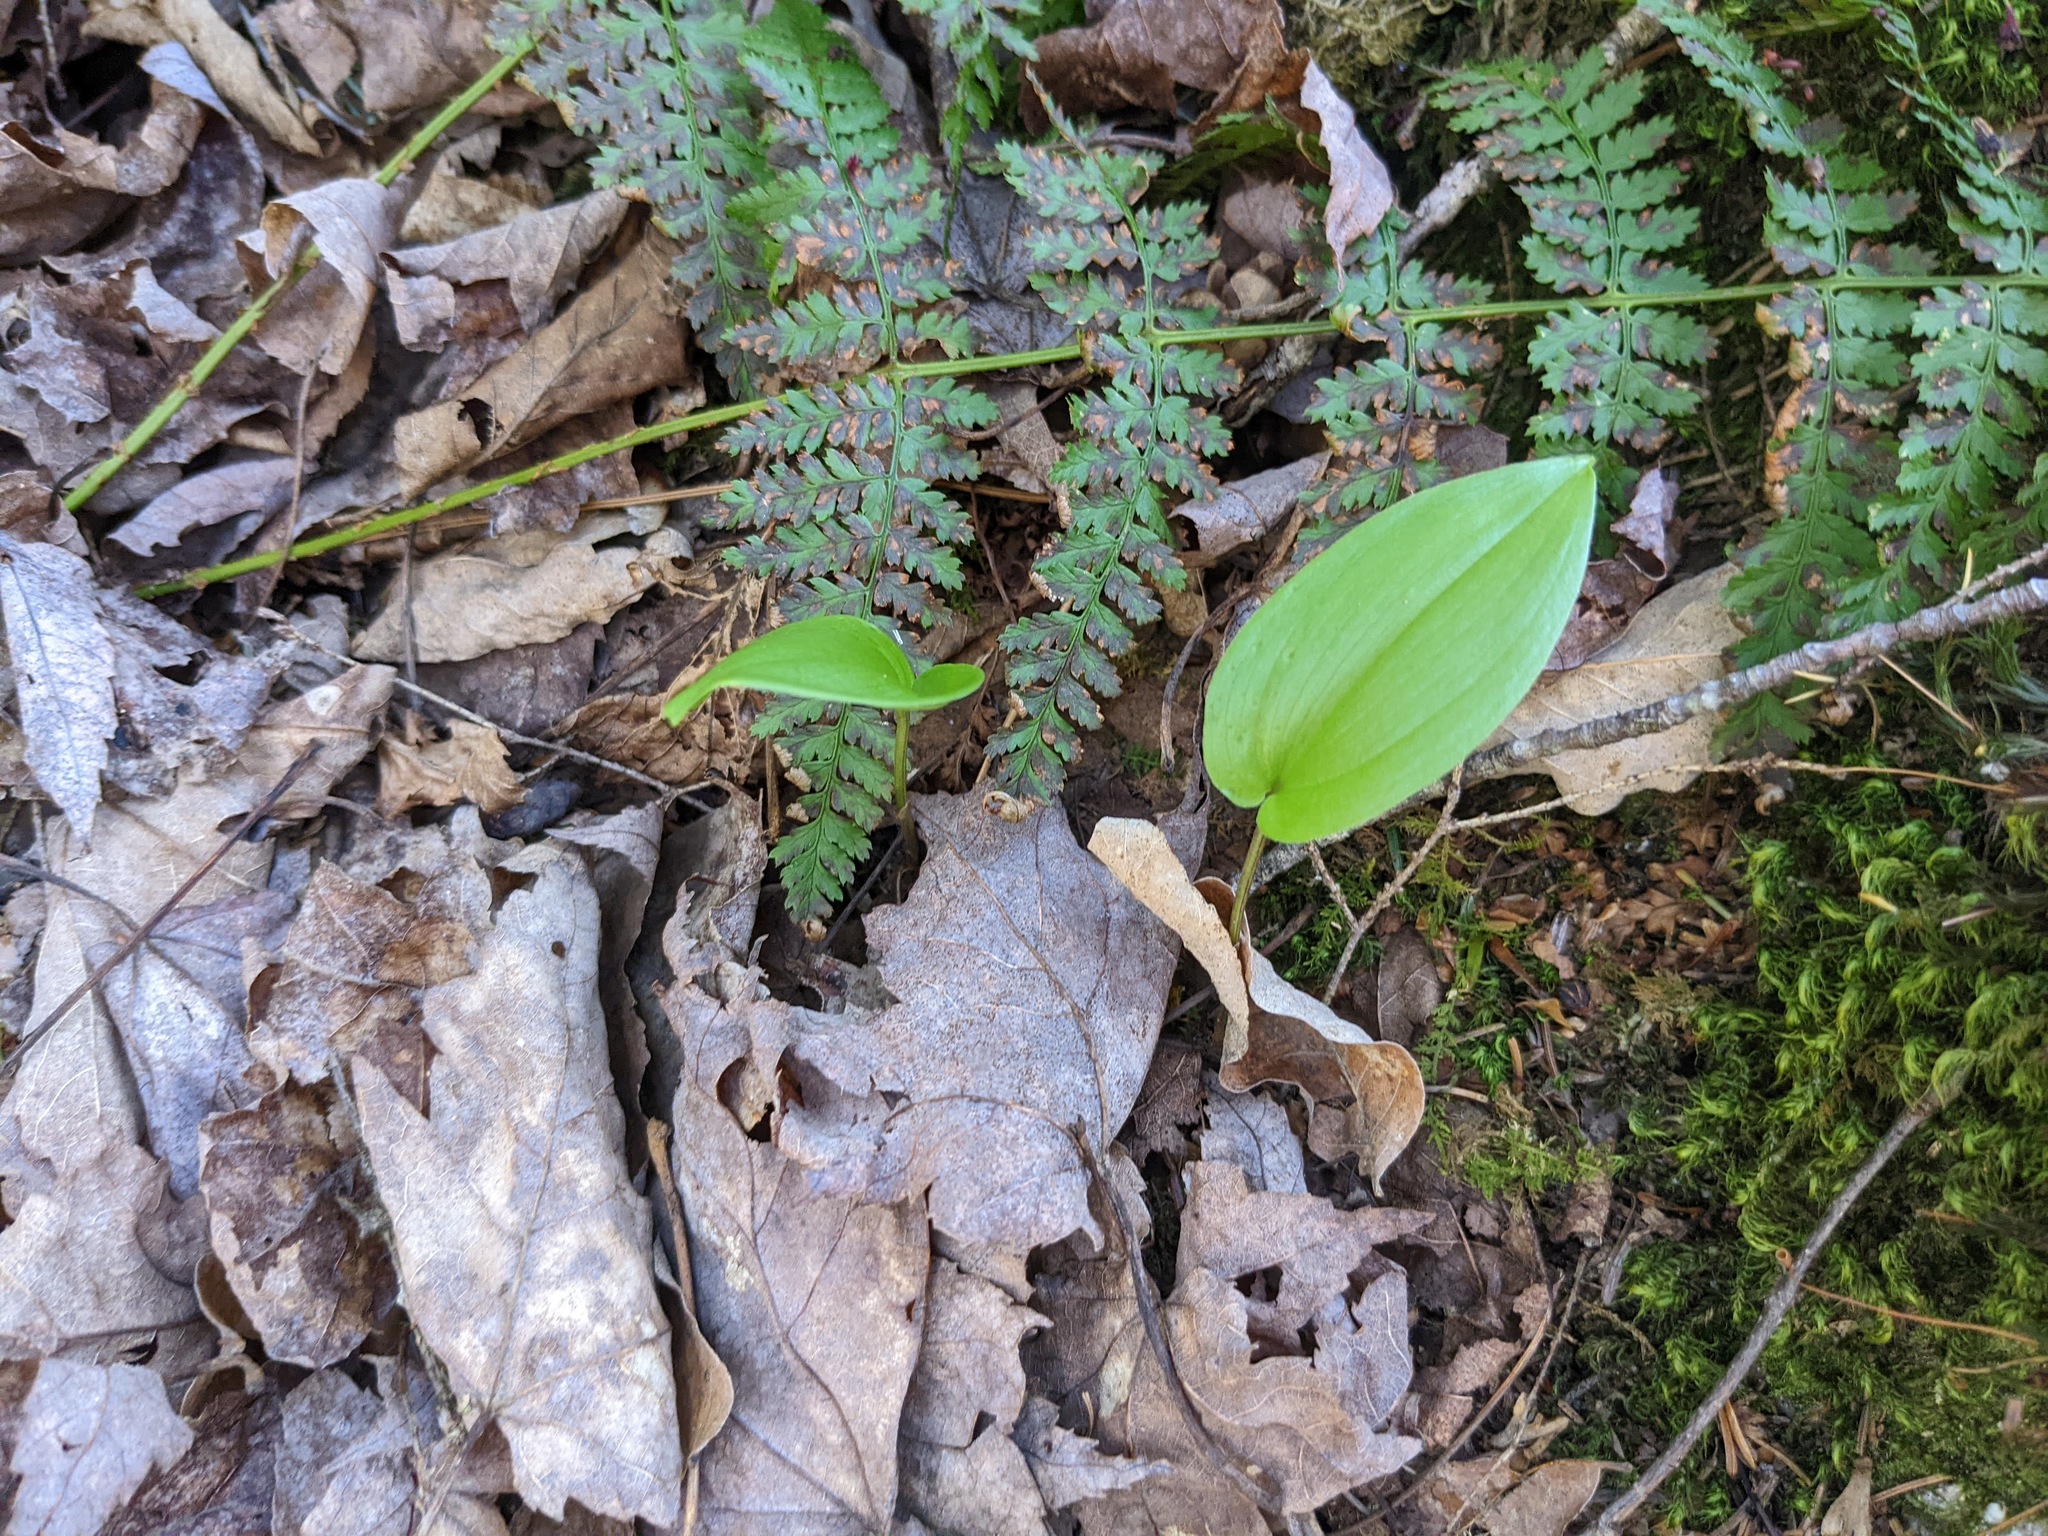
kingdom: Plantae
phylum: Tracheophyta
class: Liliopsida
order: Asparagales
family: Asparagaceae
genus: Maianthemum
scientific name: Maianthemum canadense
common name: False lily-of-the-valley
